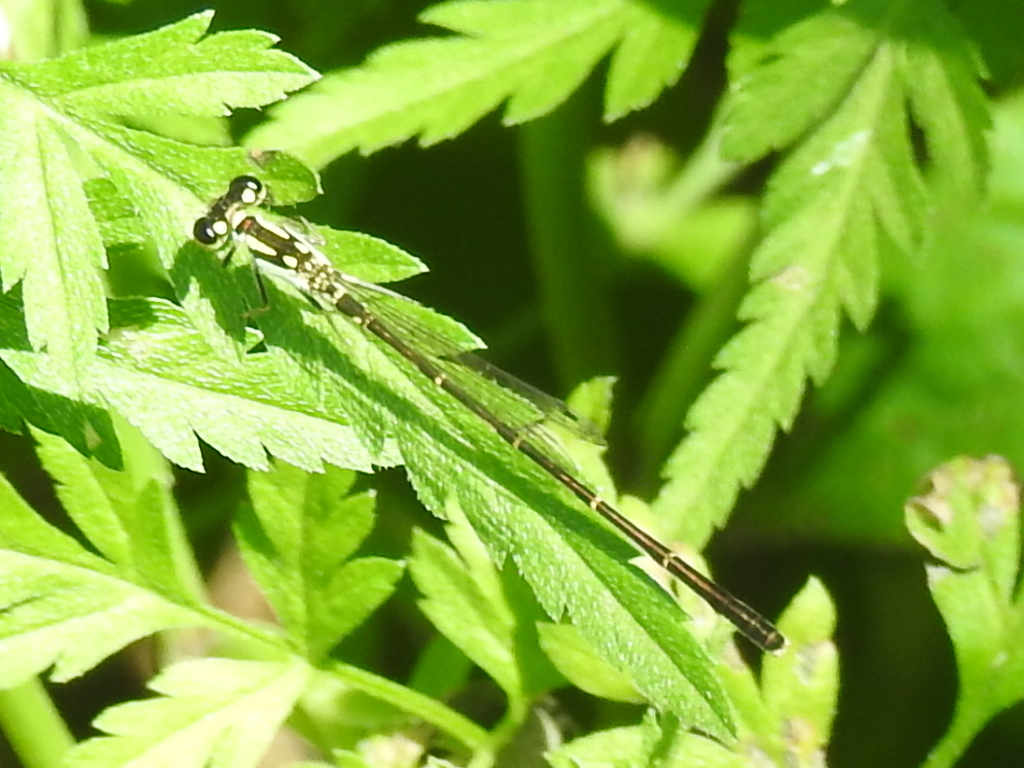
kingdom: Animalia
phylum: Arthropoda
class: Insecta
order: Odonata
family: Coenagrionidae
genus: Ischnura
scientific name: Ischnura posita
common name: Fragile forktail
